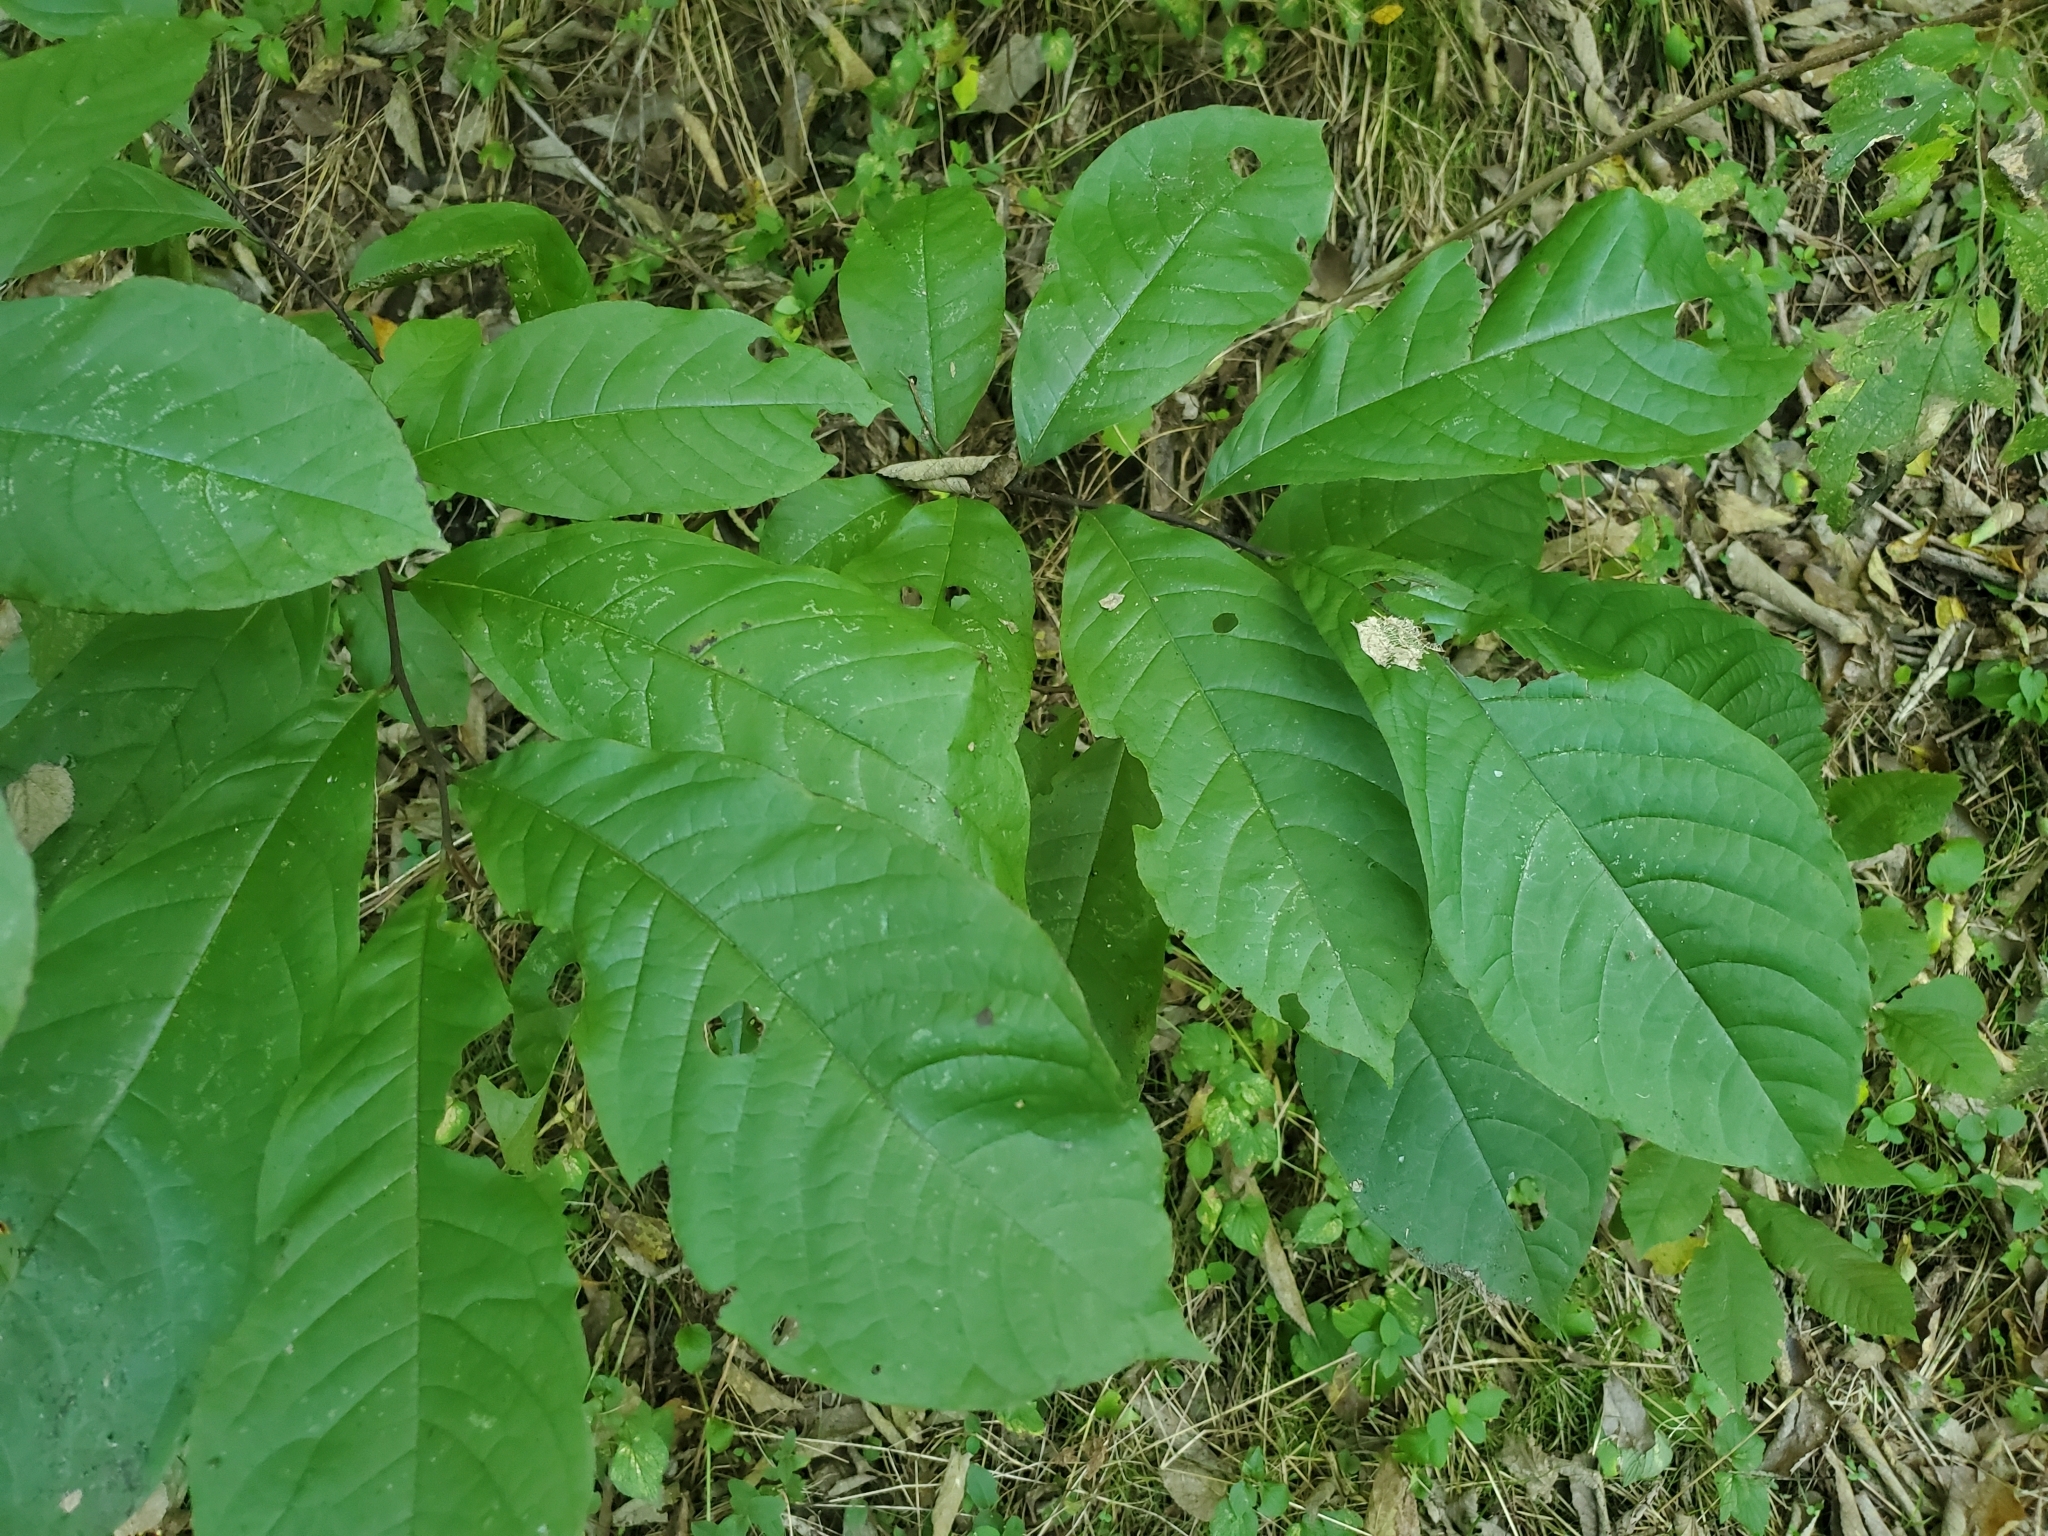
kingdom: Plantae
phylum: Tracheophyta
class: Magnoliopsida
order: Magnoliales
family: Annonaceae
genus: Asimina
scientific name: Asimina triloba
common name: Dog-banana
